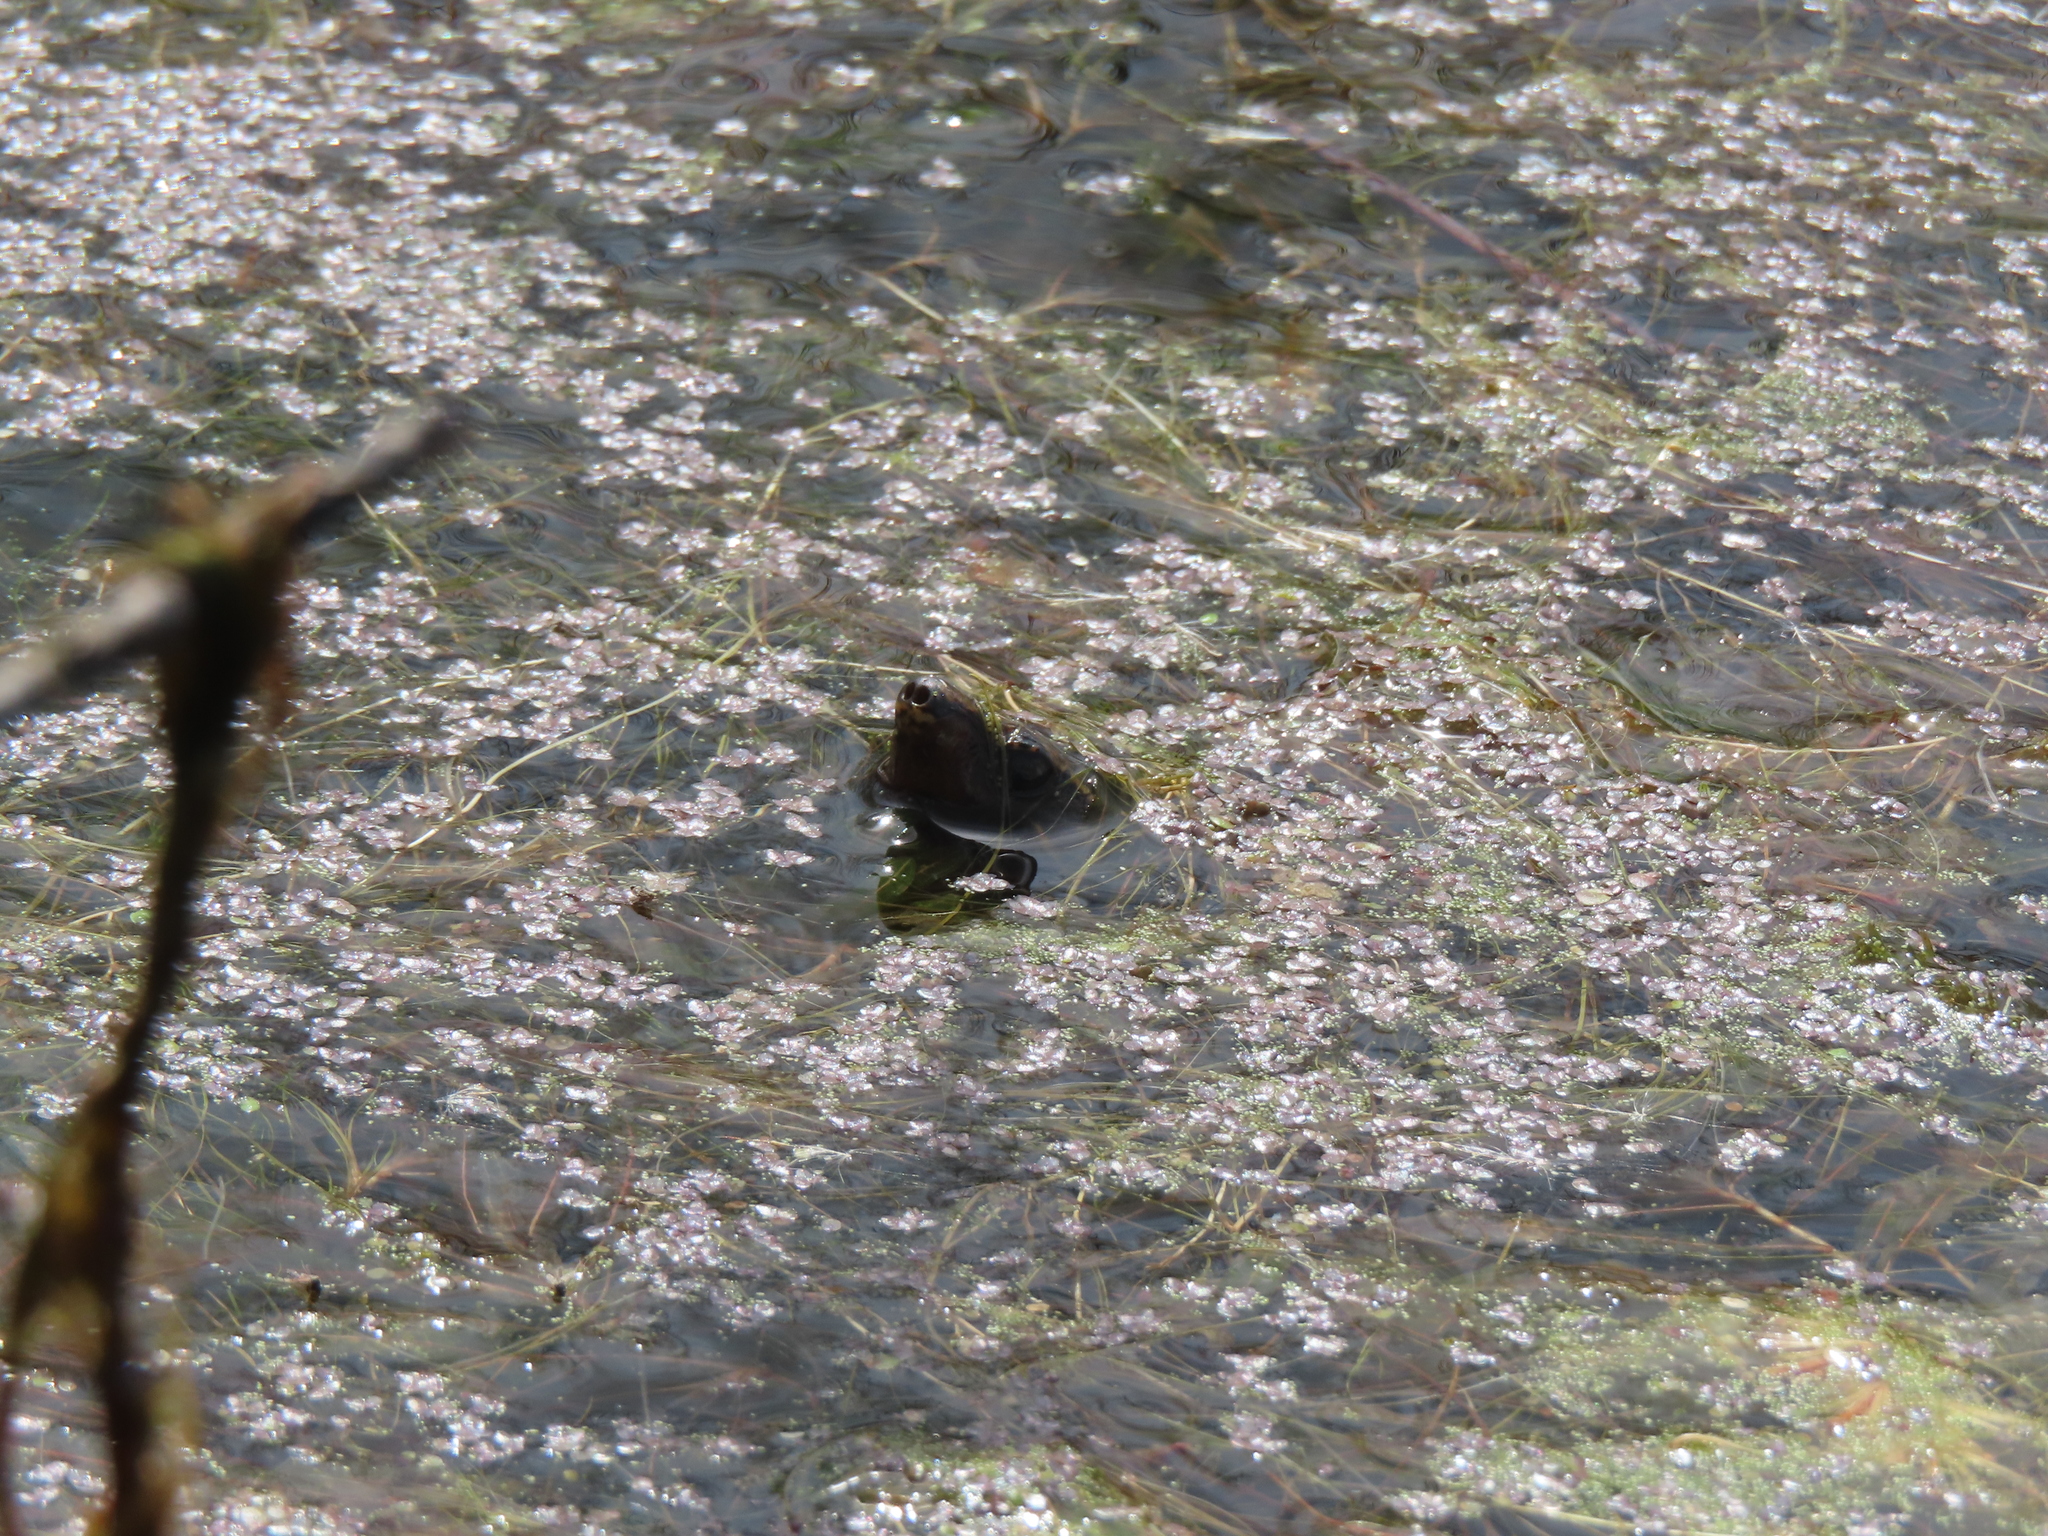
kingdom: Animalia
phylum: Chordata
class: Testudines
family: Kinosternidae
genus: Sternotherus
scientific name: Sternotherus odoratus
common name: Common musk turtle
